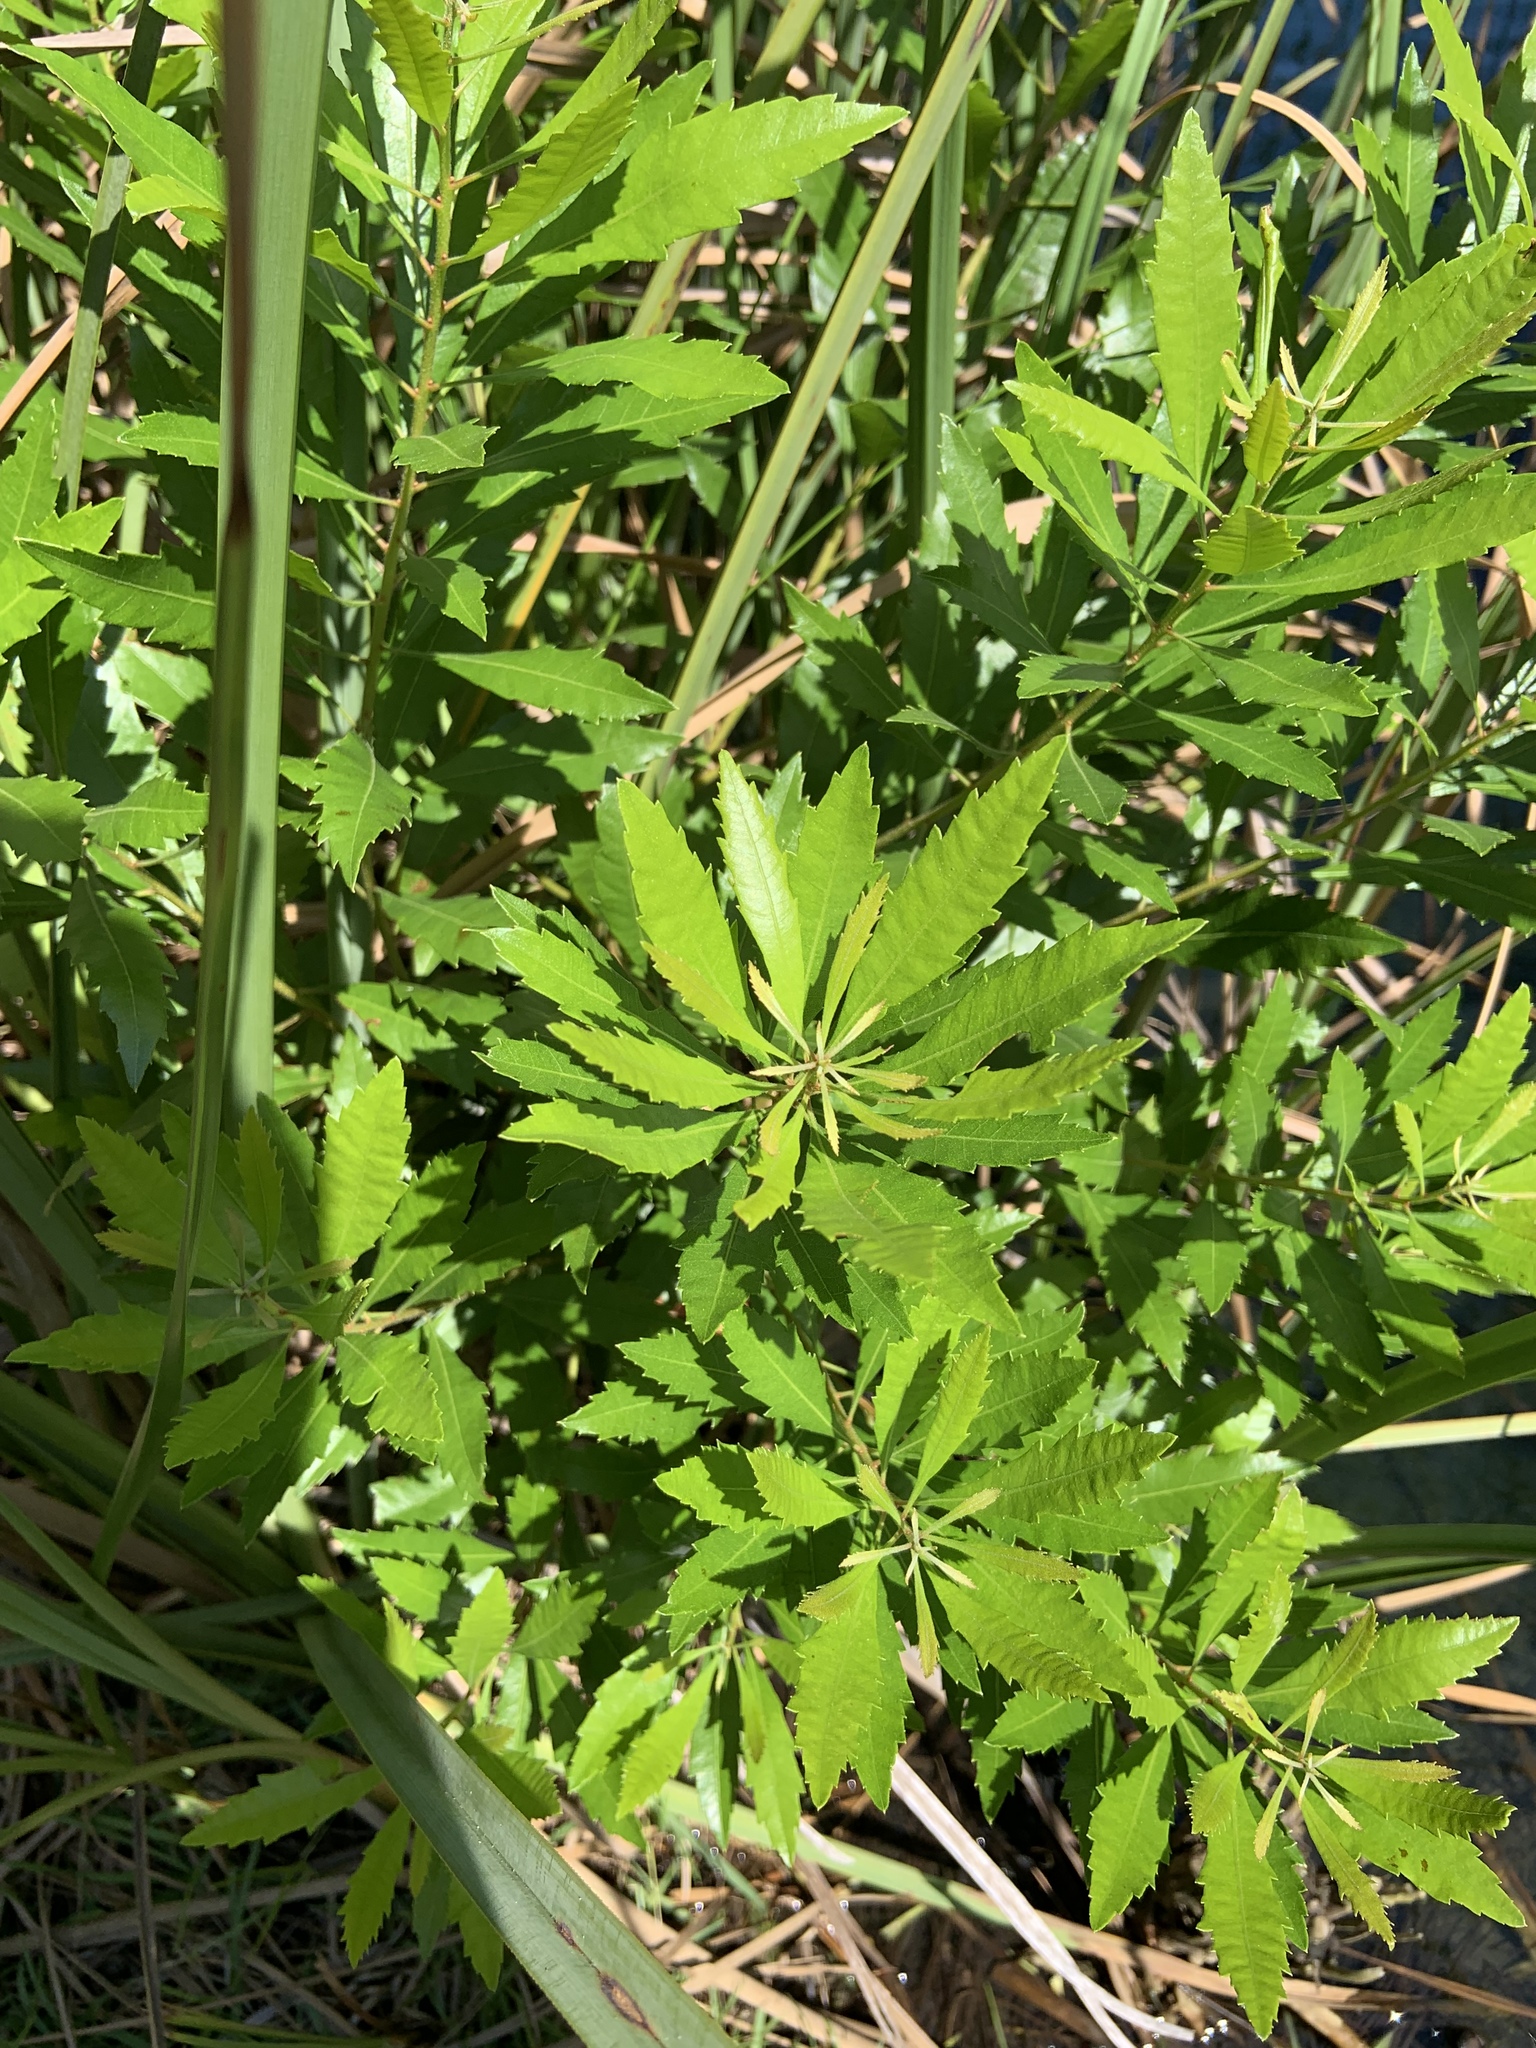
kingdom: Plantae
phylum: Tracheophyta
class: Magnoliopsida
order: Fagales
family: Myricaceae
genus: Morella
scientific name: Morella cerifera
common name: Wax myrtle
